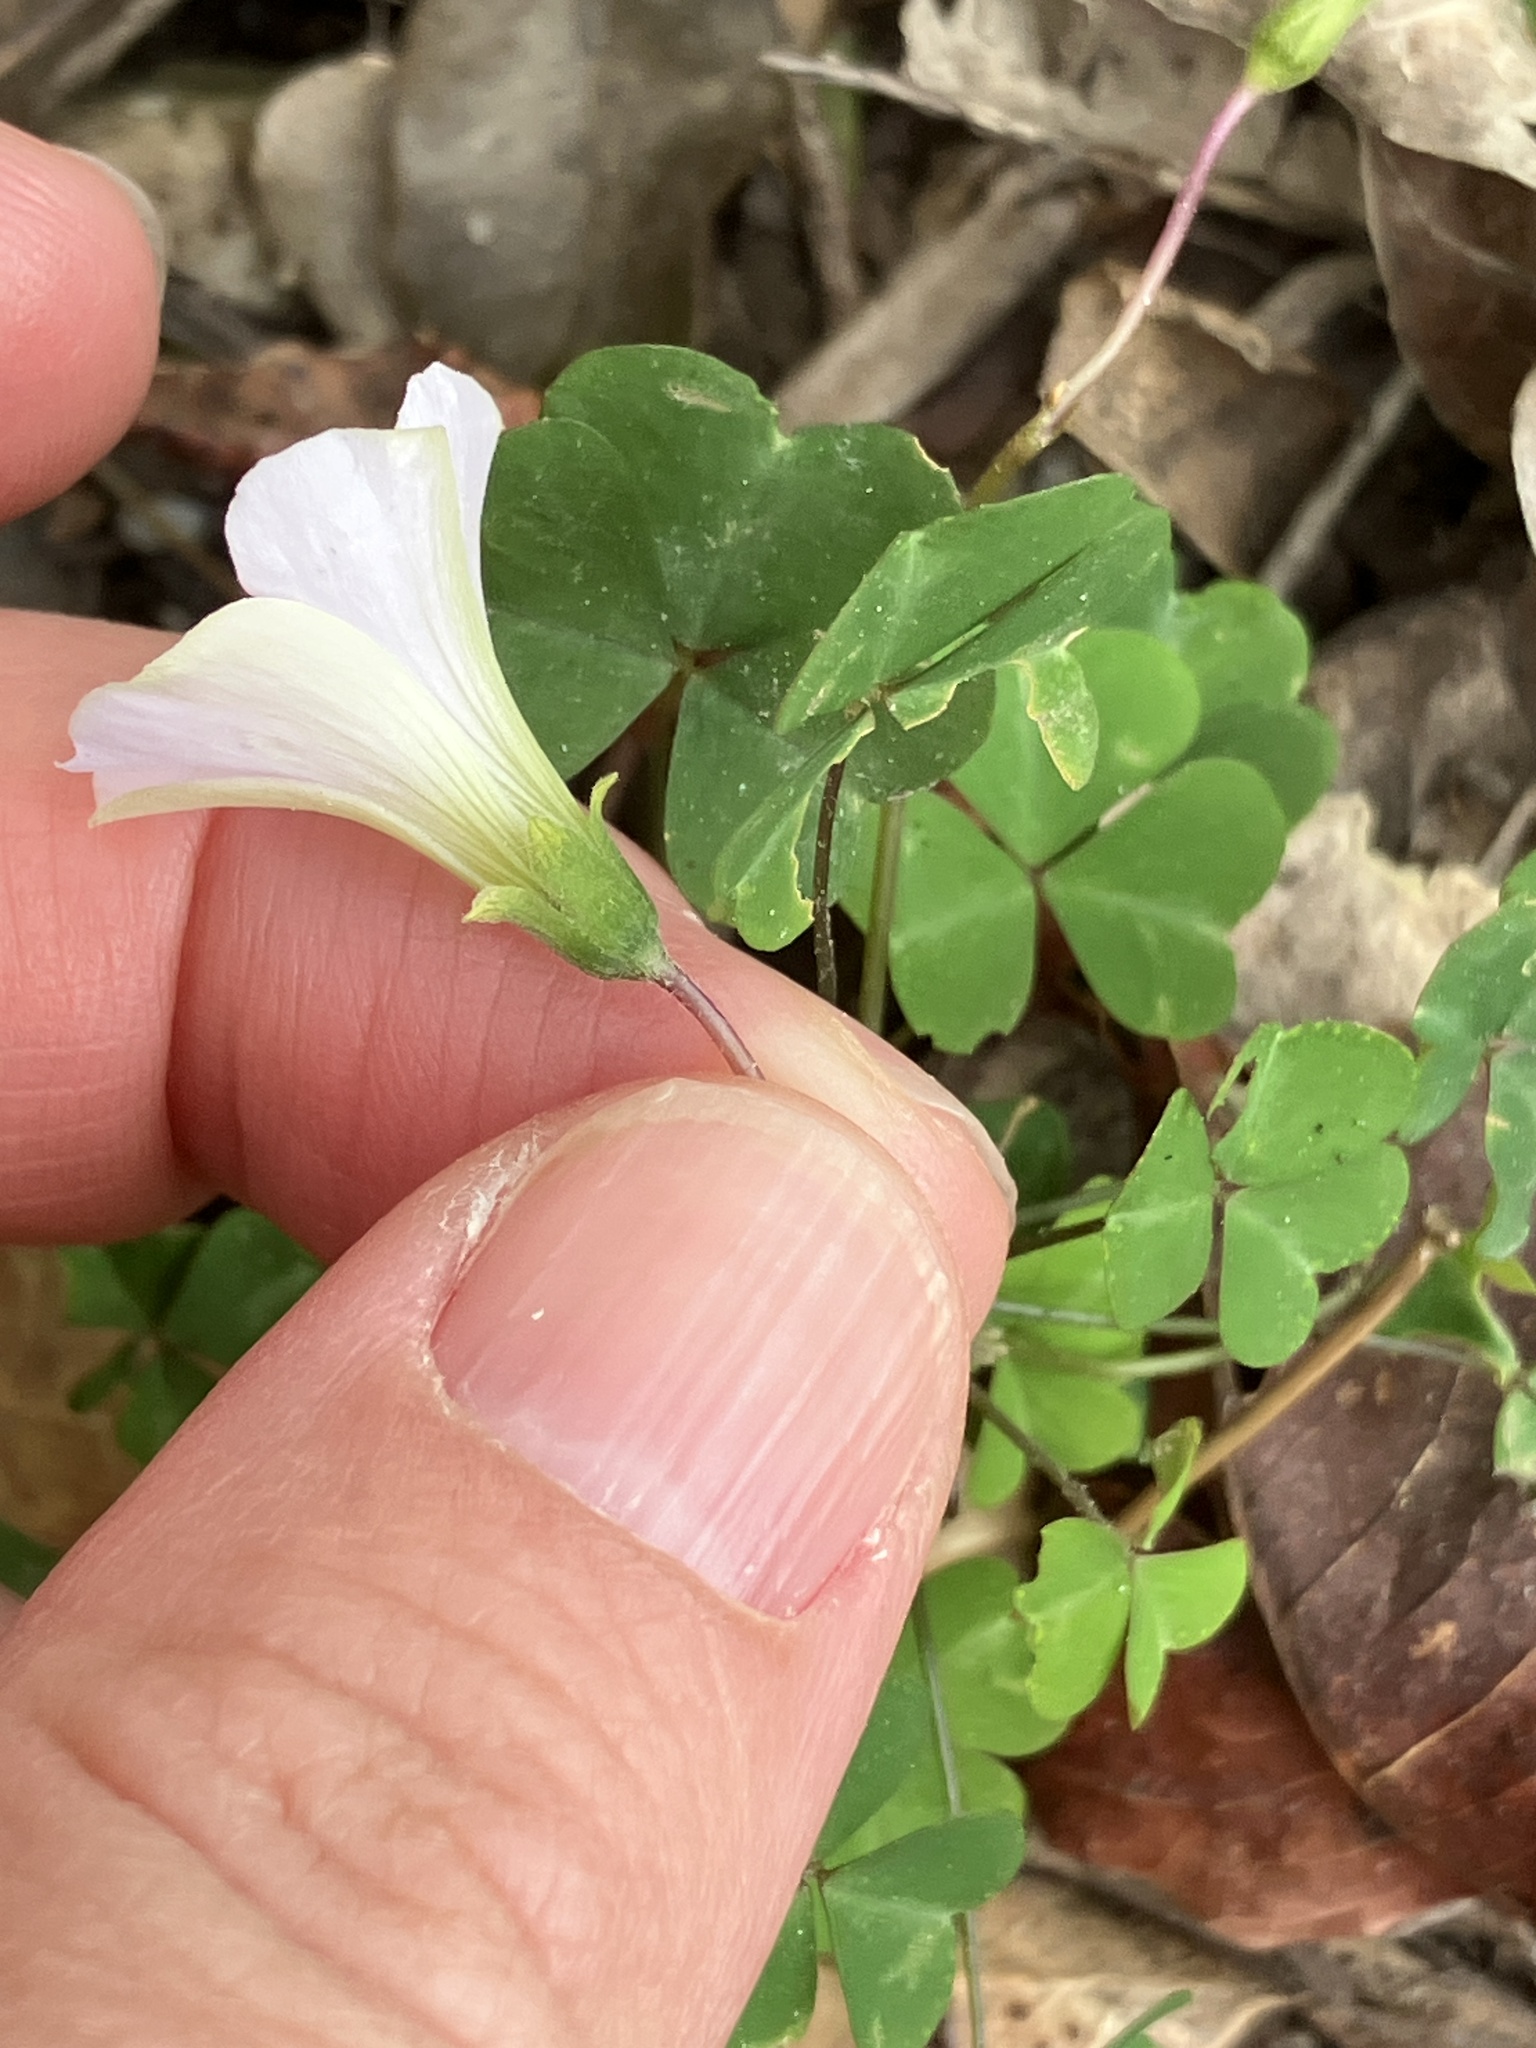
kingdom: Plantae
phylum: Tracheophyta
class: Magnoliopsida
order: Oxalidales
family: Oxalidaceae
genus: Oxalis
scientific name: Oxalis incarnata
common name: Pale pink-sorrel
